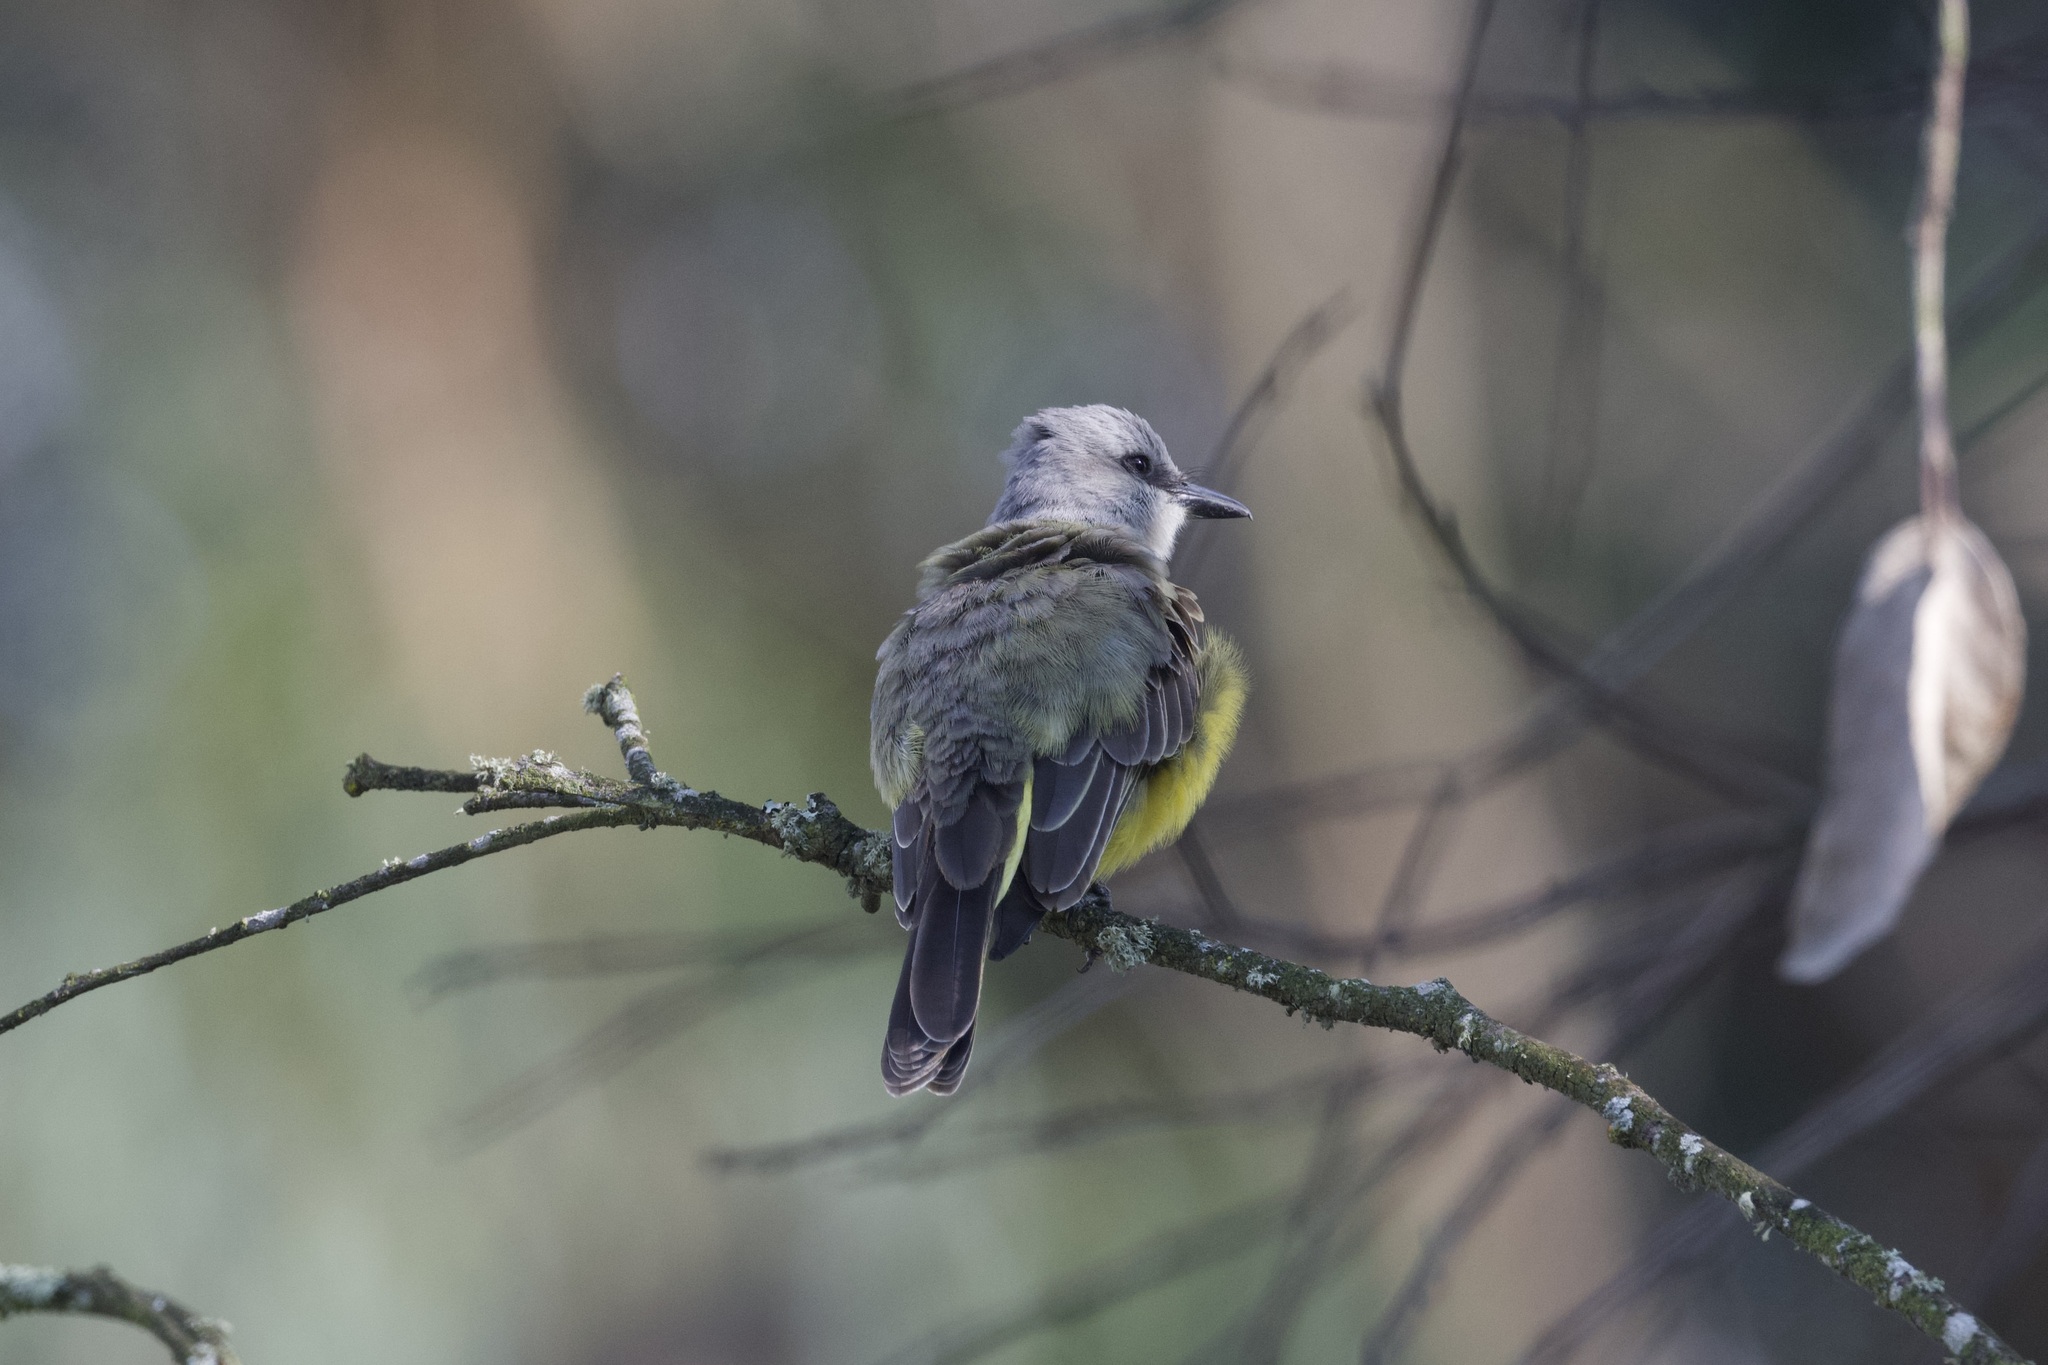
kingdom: Animalia
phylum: Chordata
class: Aves
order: Passeriformes
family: Tyrannidae
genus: Tyrannus
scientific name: Tyrannus melancholicus
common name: Tropical kingbird
